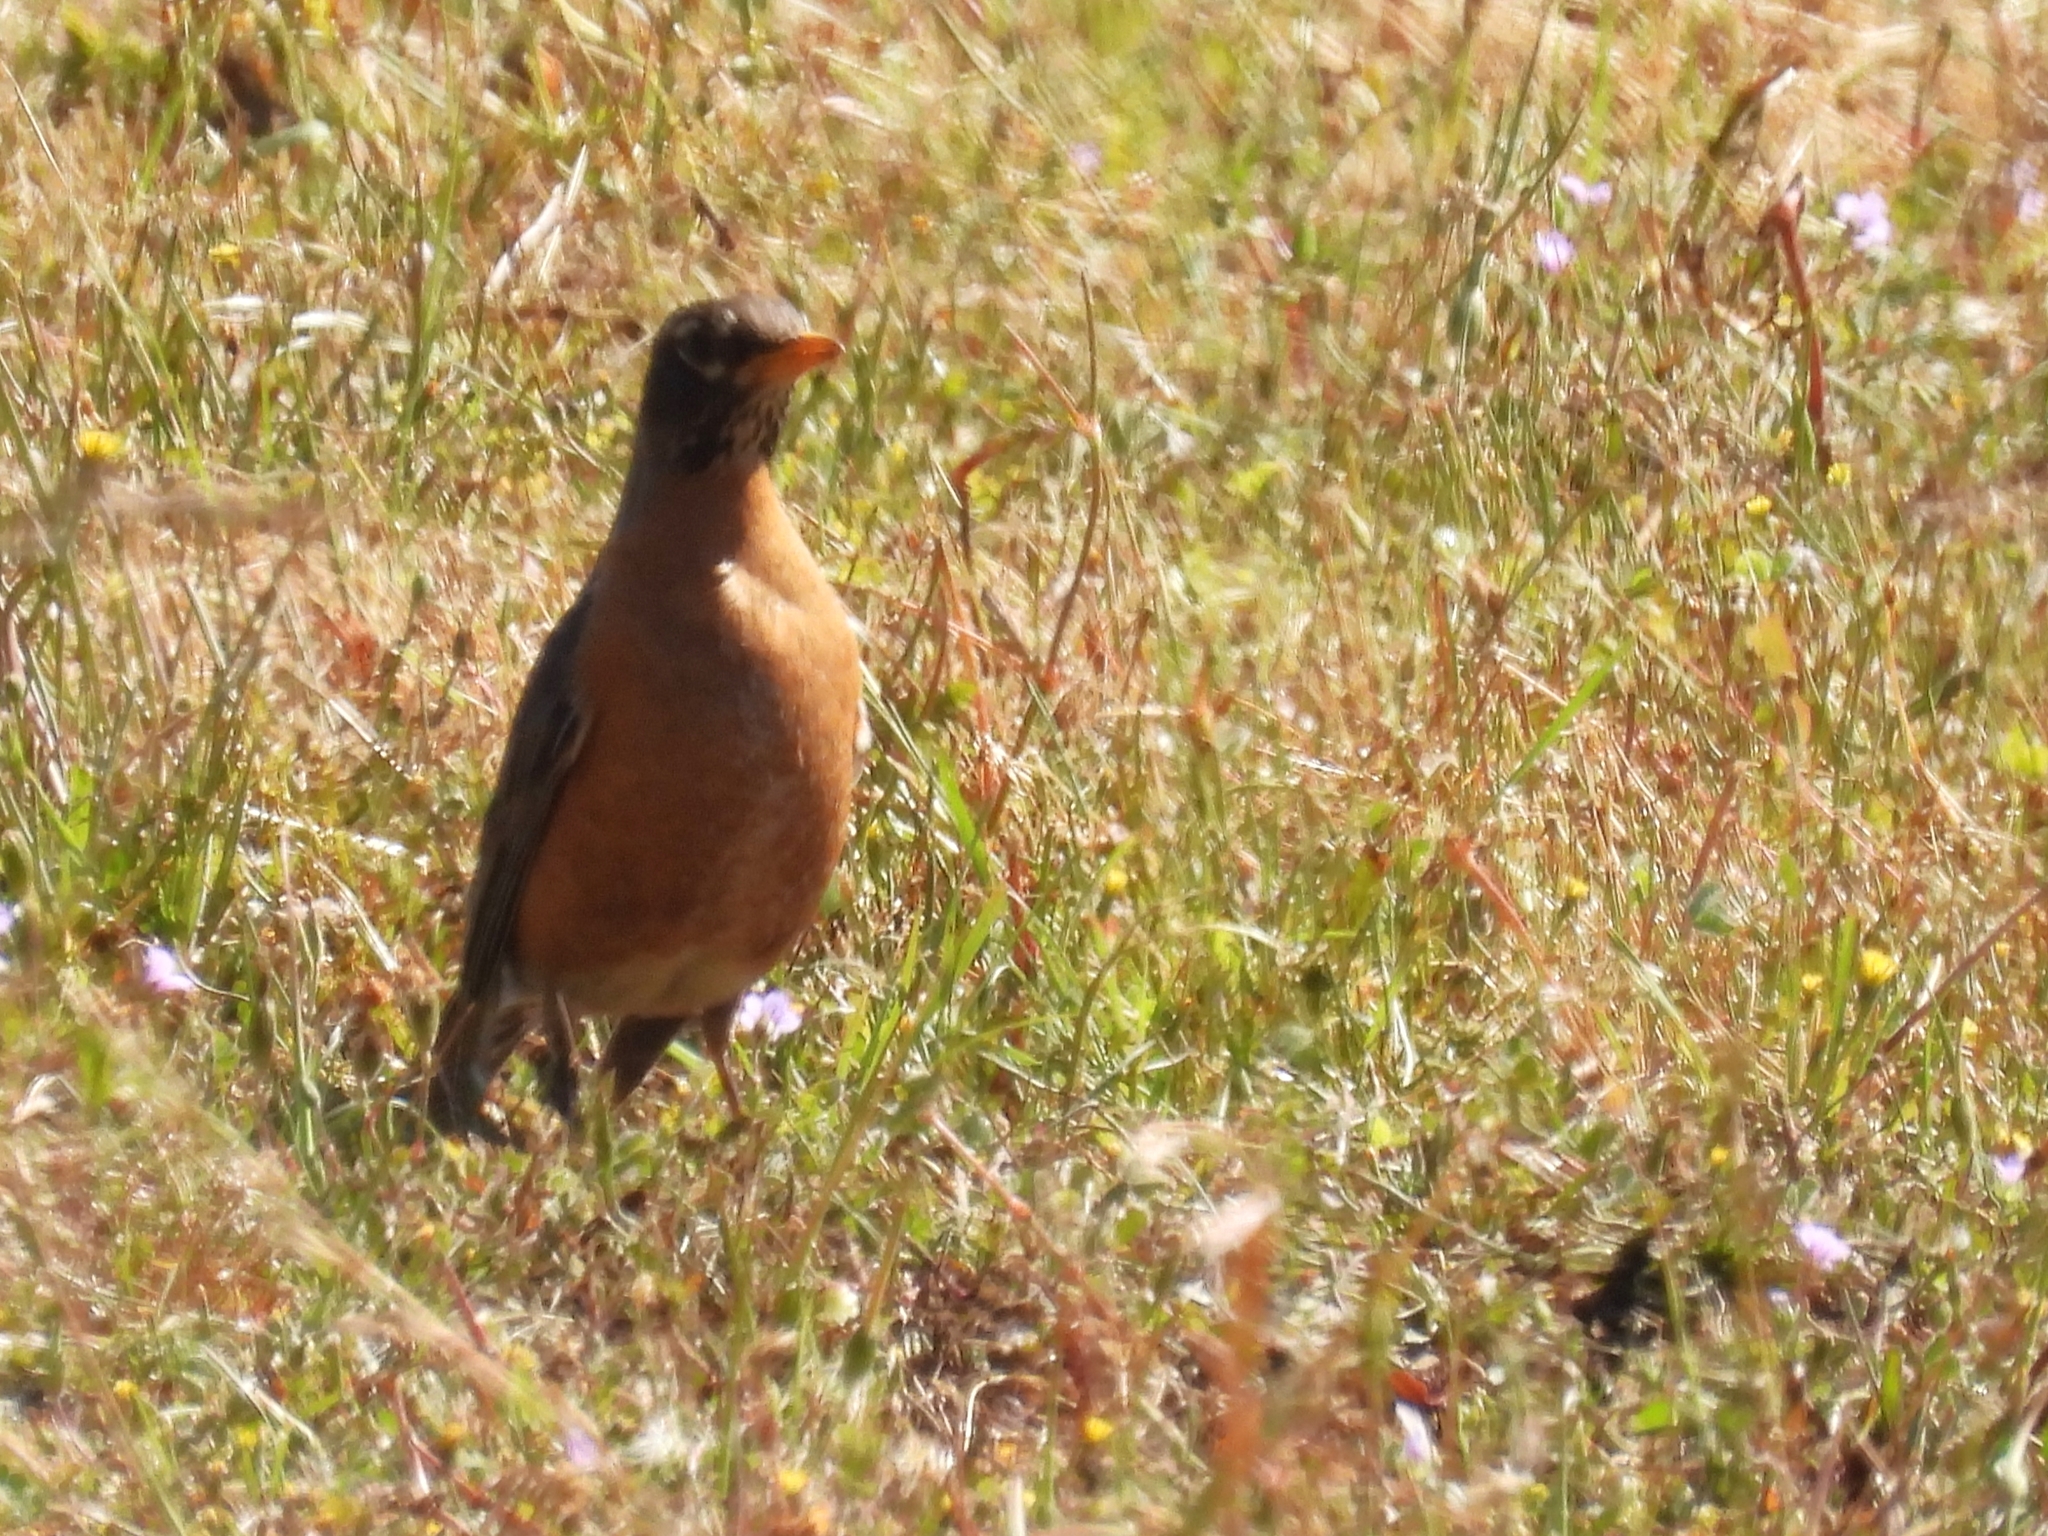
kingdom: Animalia
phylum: Chordata
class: Aves
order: Passeriformes
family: Turdidae
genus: Turdus
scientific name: Turdus migratorius
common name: American robin
